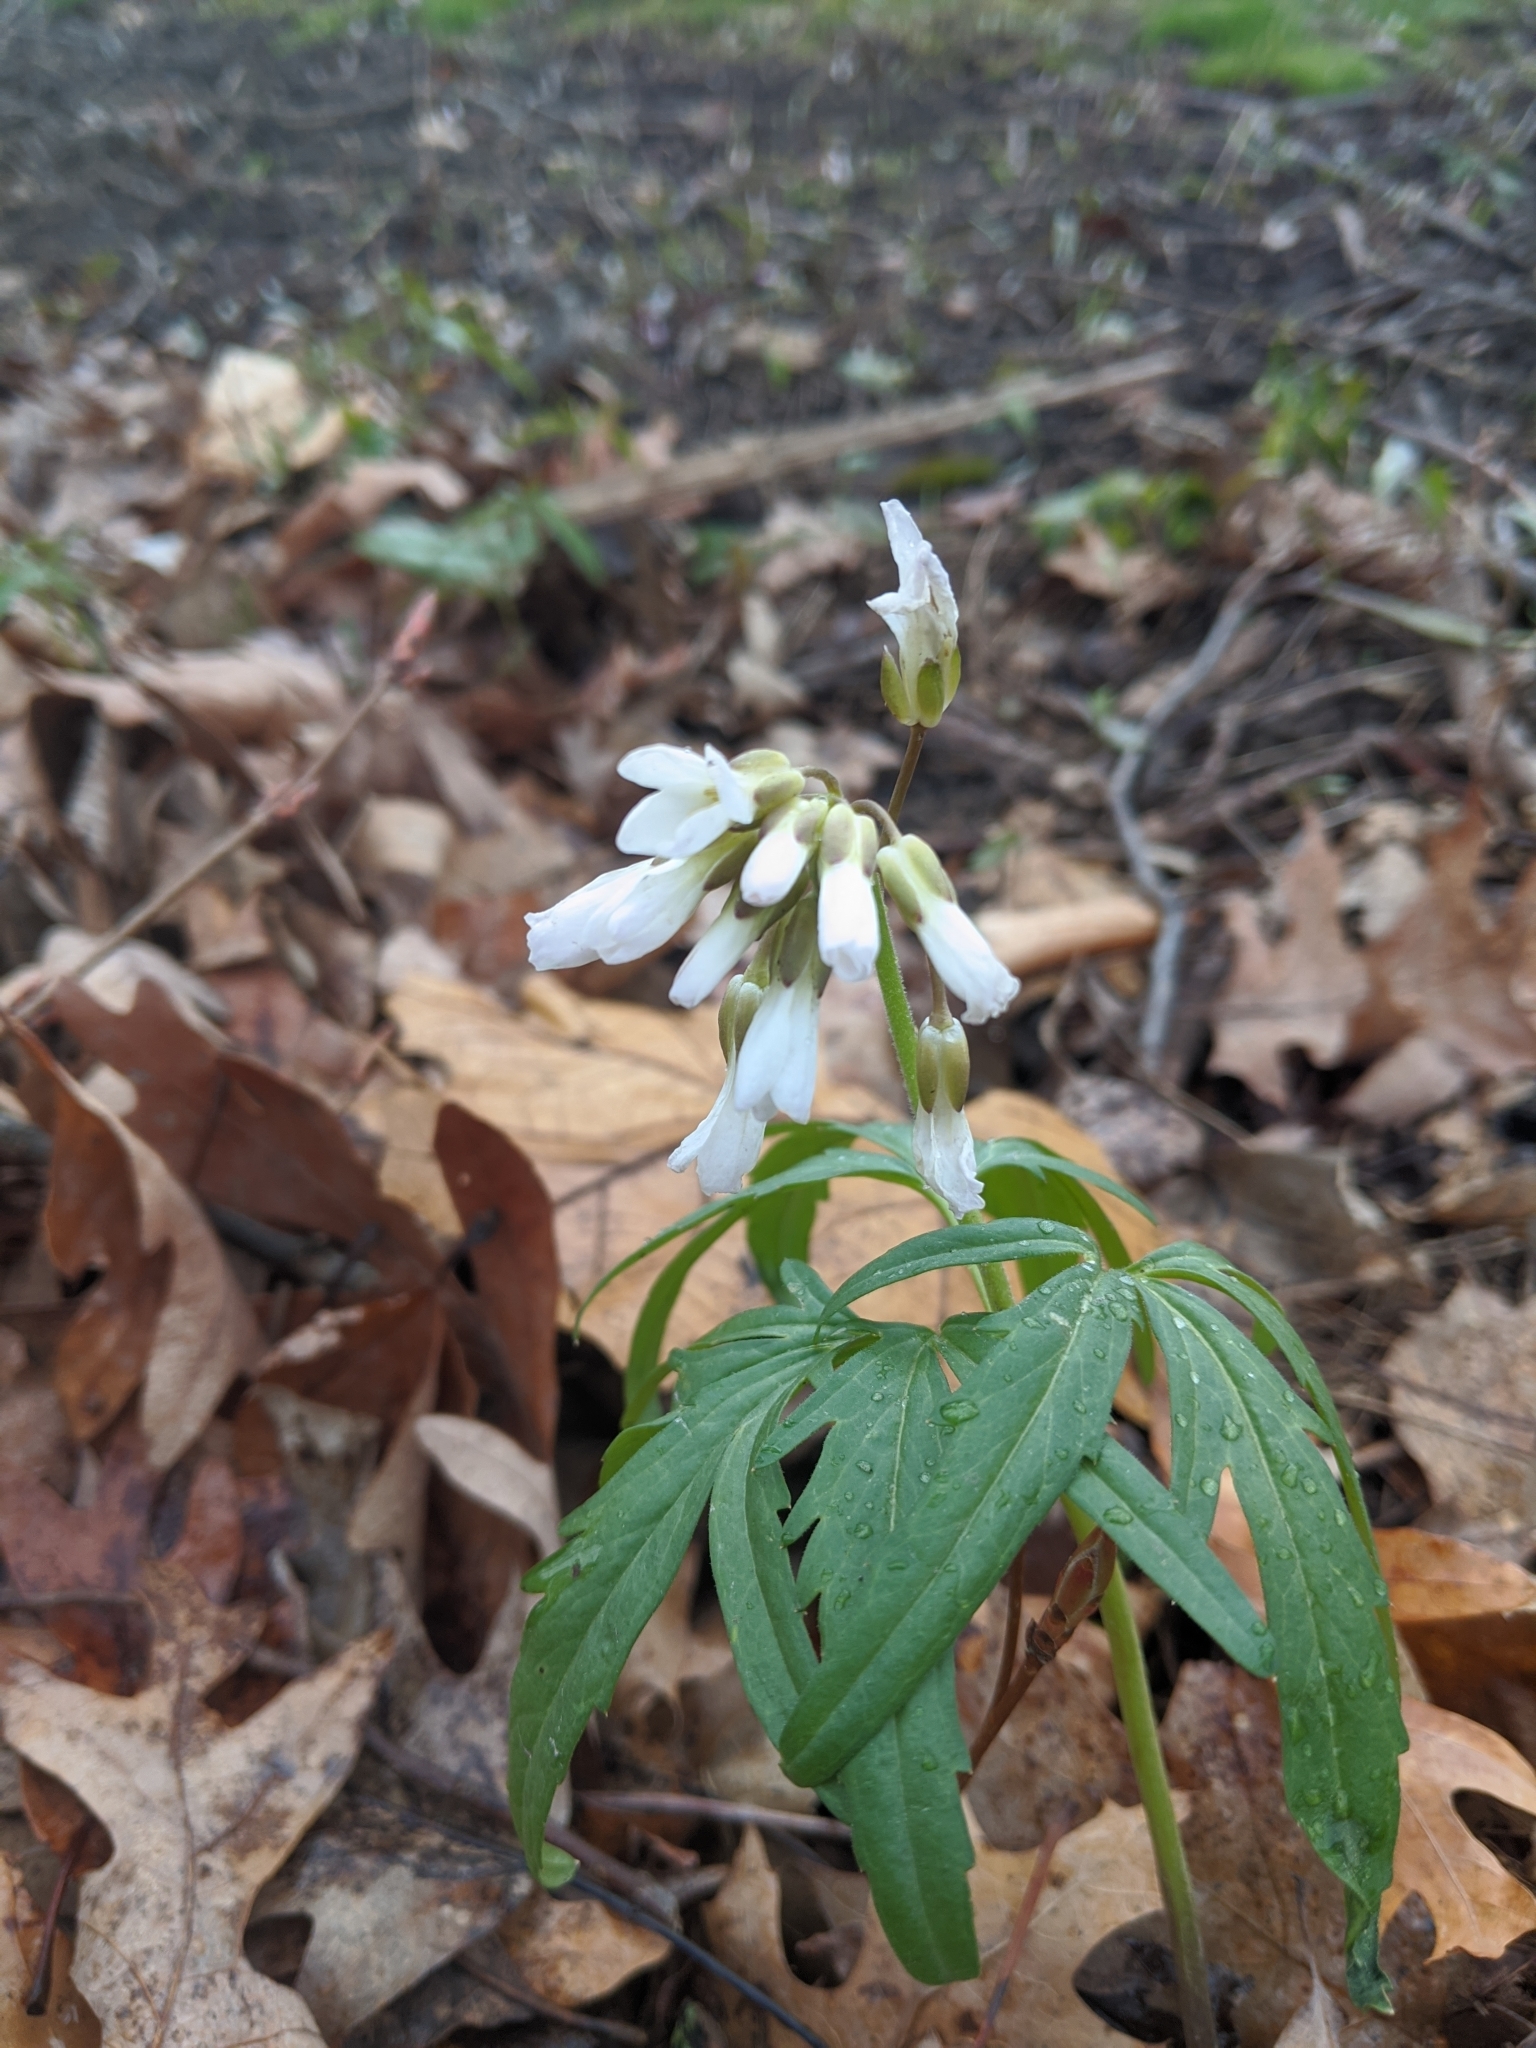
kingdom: Plantae
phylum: Tracheophyta
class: Magnoliopsida
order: Brassicales
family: Brassicaceae
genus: Cardamine
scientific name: Cardamine concatenata
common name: Cut-leaf toothcup
